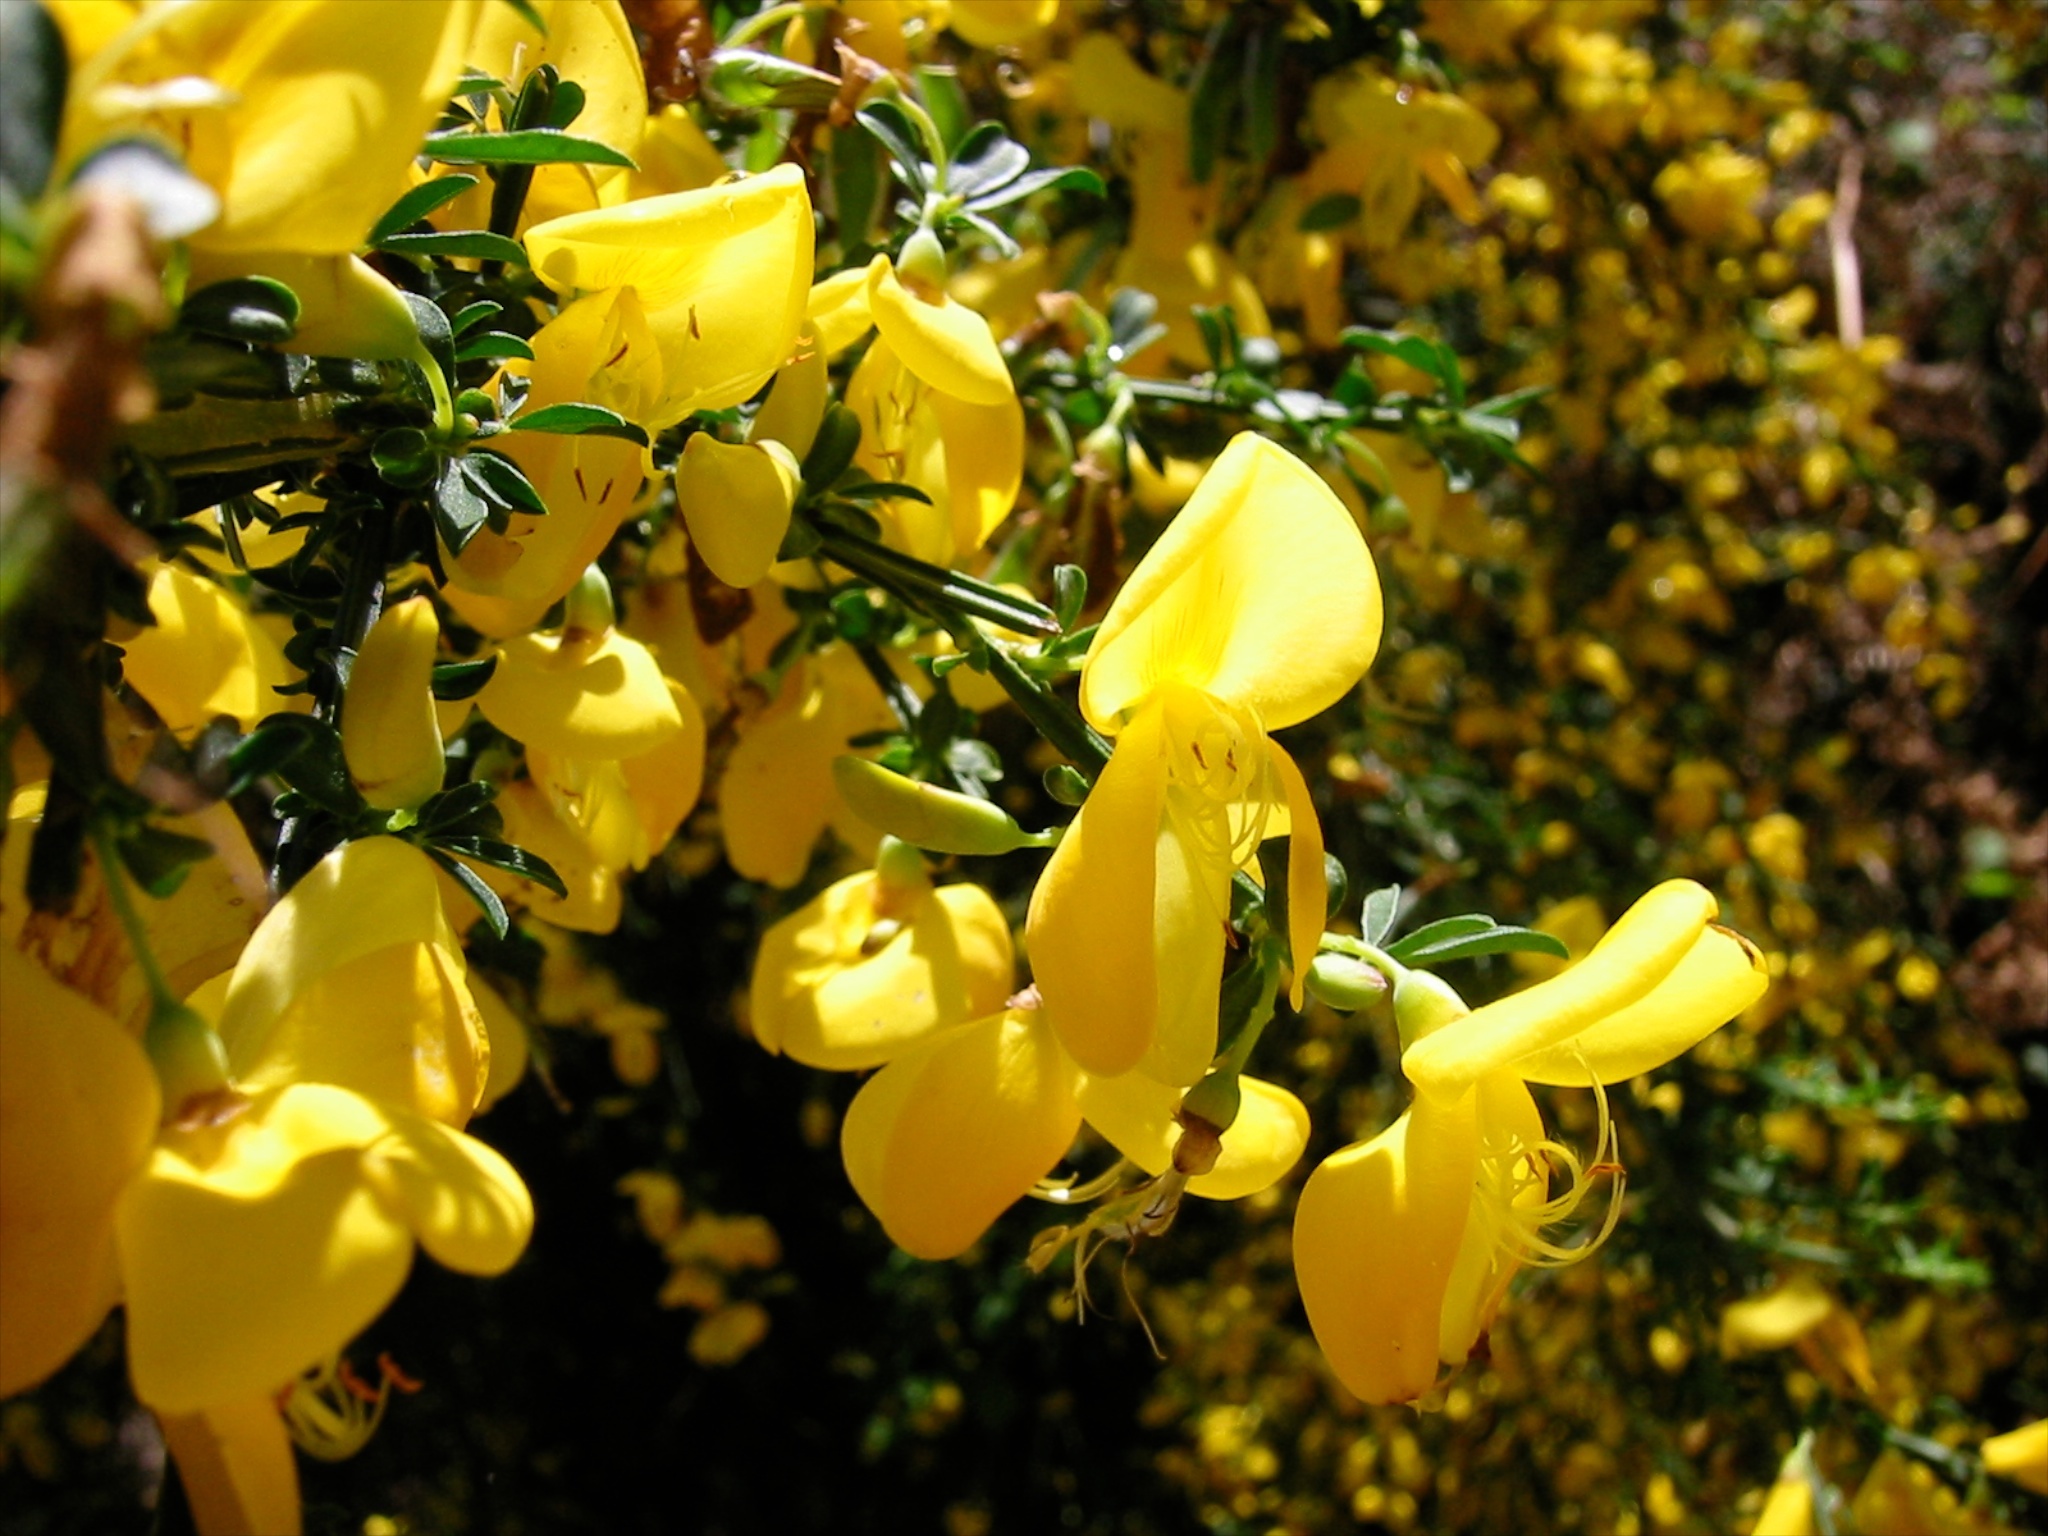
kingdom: Plantae
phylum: Tracheophyta
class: Magnoliopsida
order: Fabales
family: Fabaceae
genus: Cytisus
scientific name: Cytisus scoparius
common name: Scotch broom
